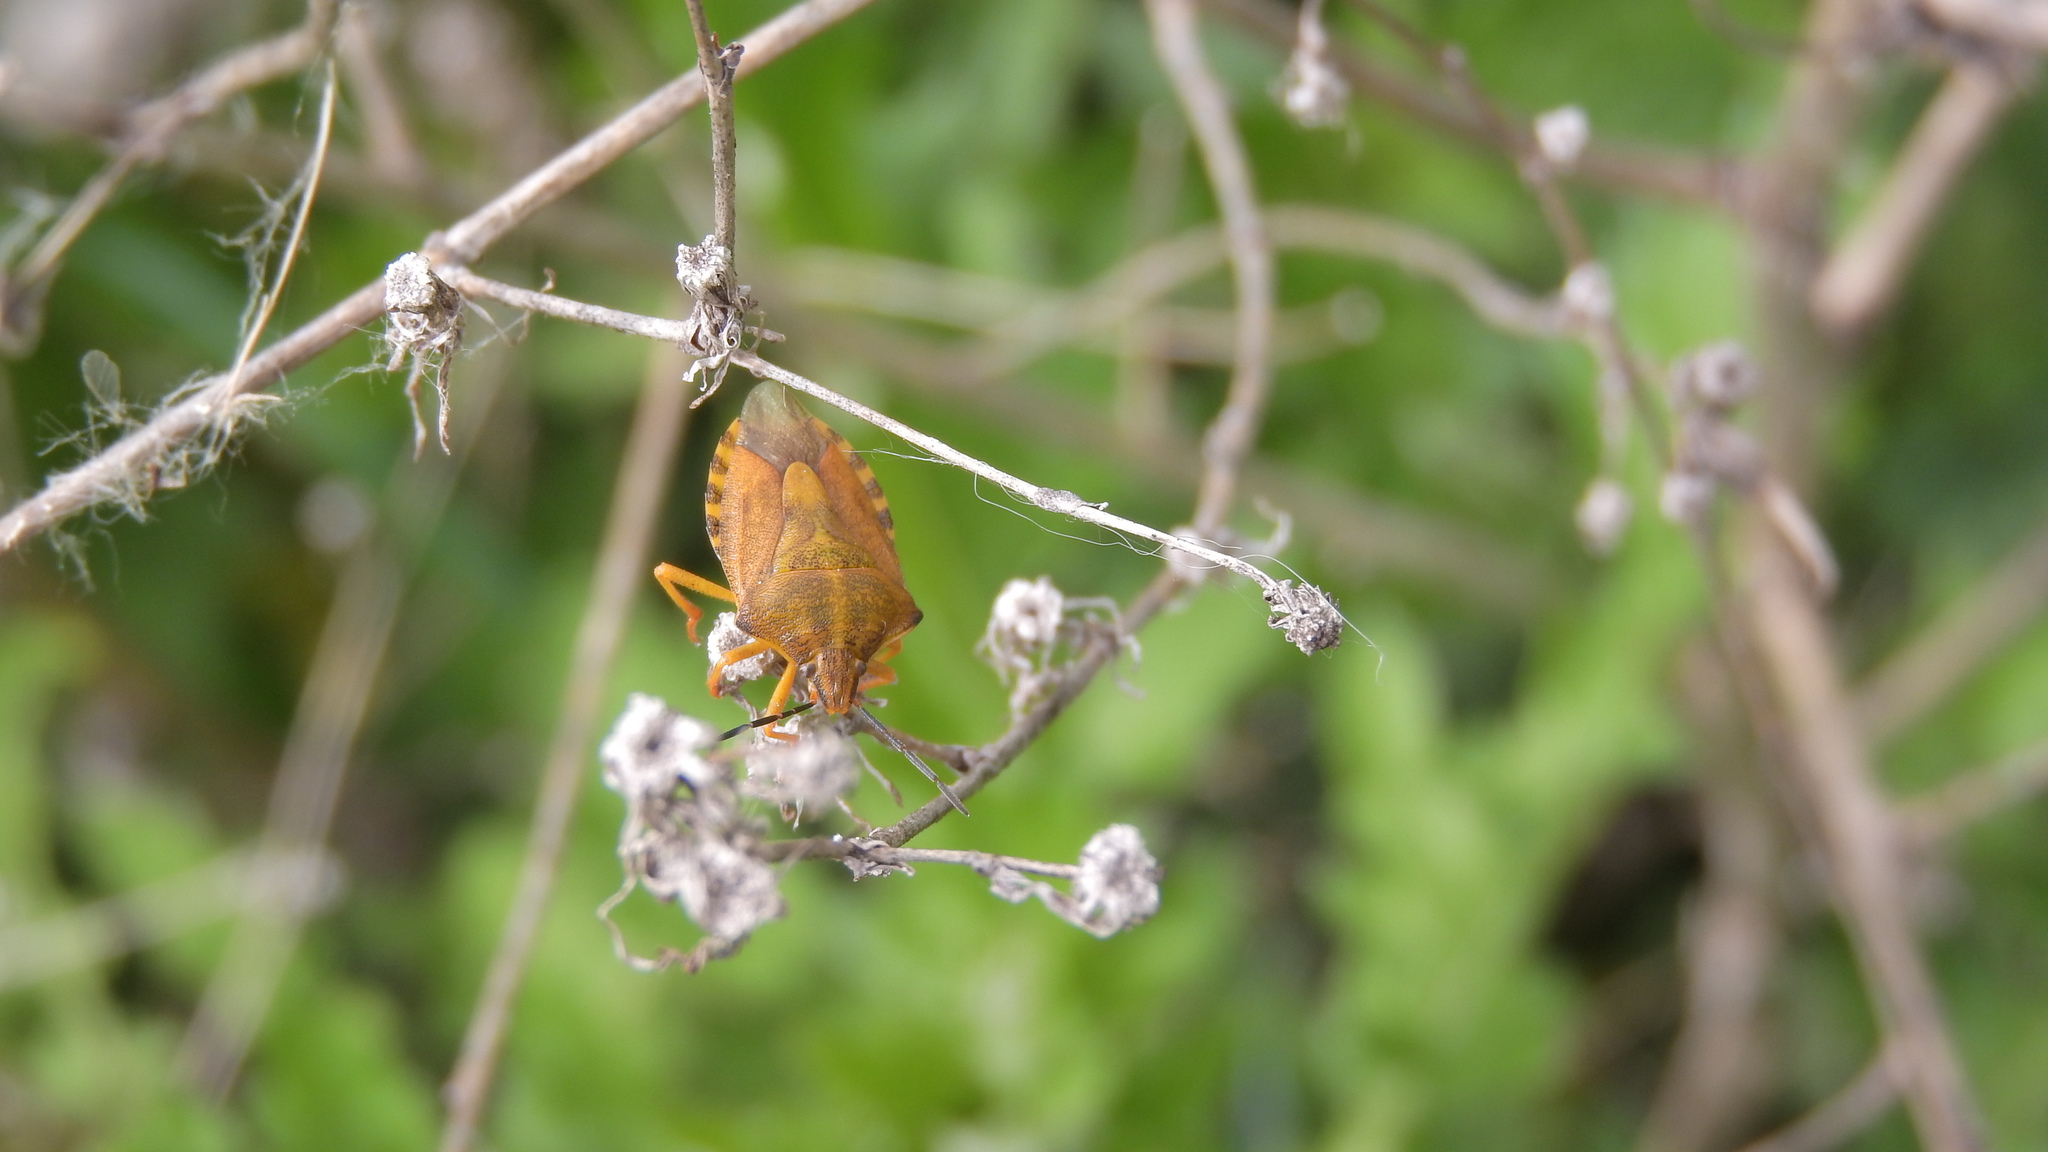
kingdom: Animalia
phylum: Arthropoda
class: Insecta
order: Hemiptera
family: Pentatomidae
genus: Carpocoris
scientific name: Carpocoris purpureipennis
